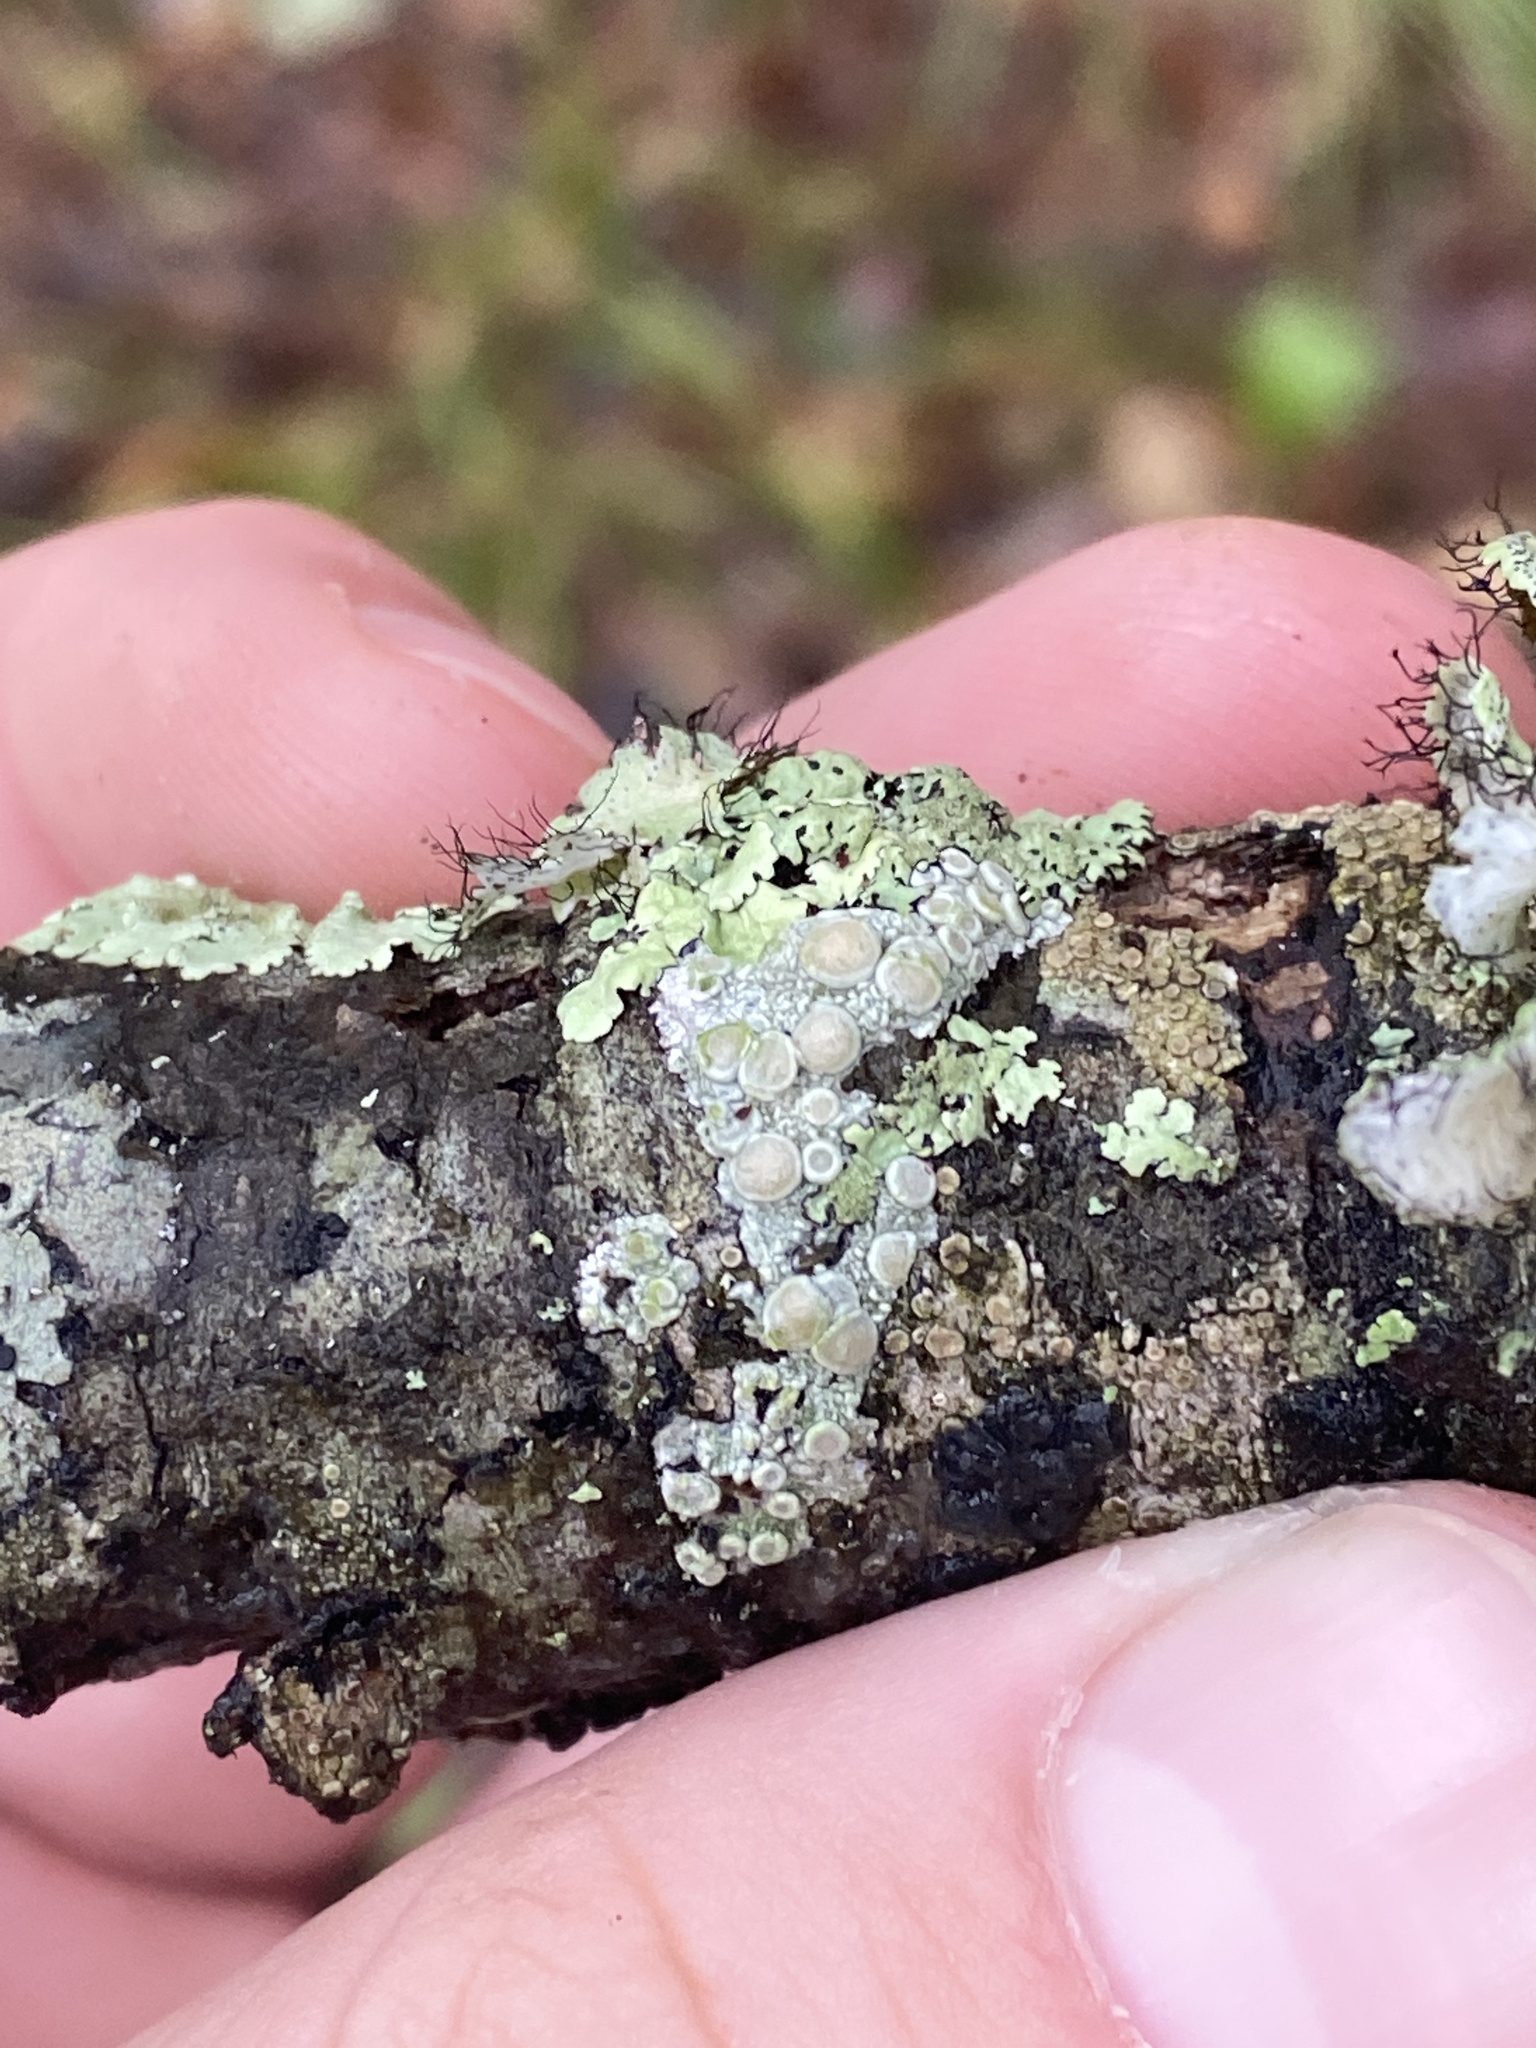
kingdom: Fungi
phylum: Ascomycota
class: Lecanoromycetes
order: Pertusariales
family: Ochrolechiaceae
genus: Ochrolechia
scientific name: Ochrolechia africana
